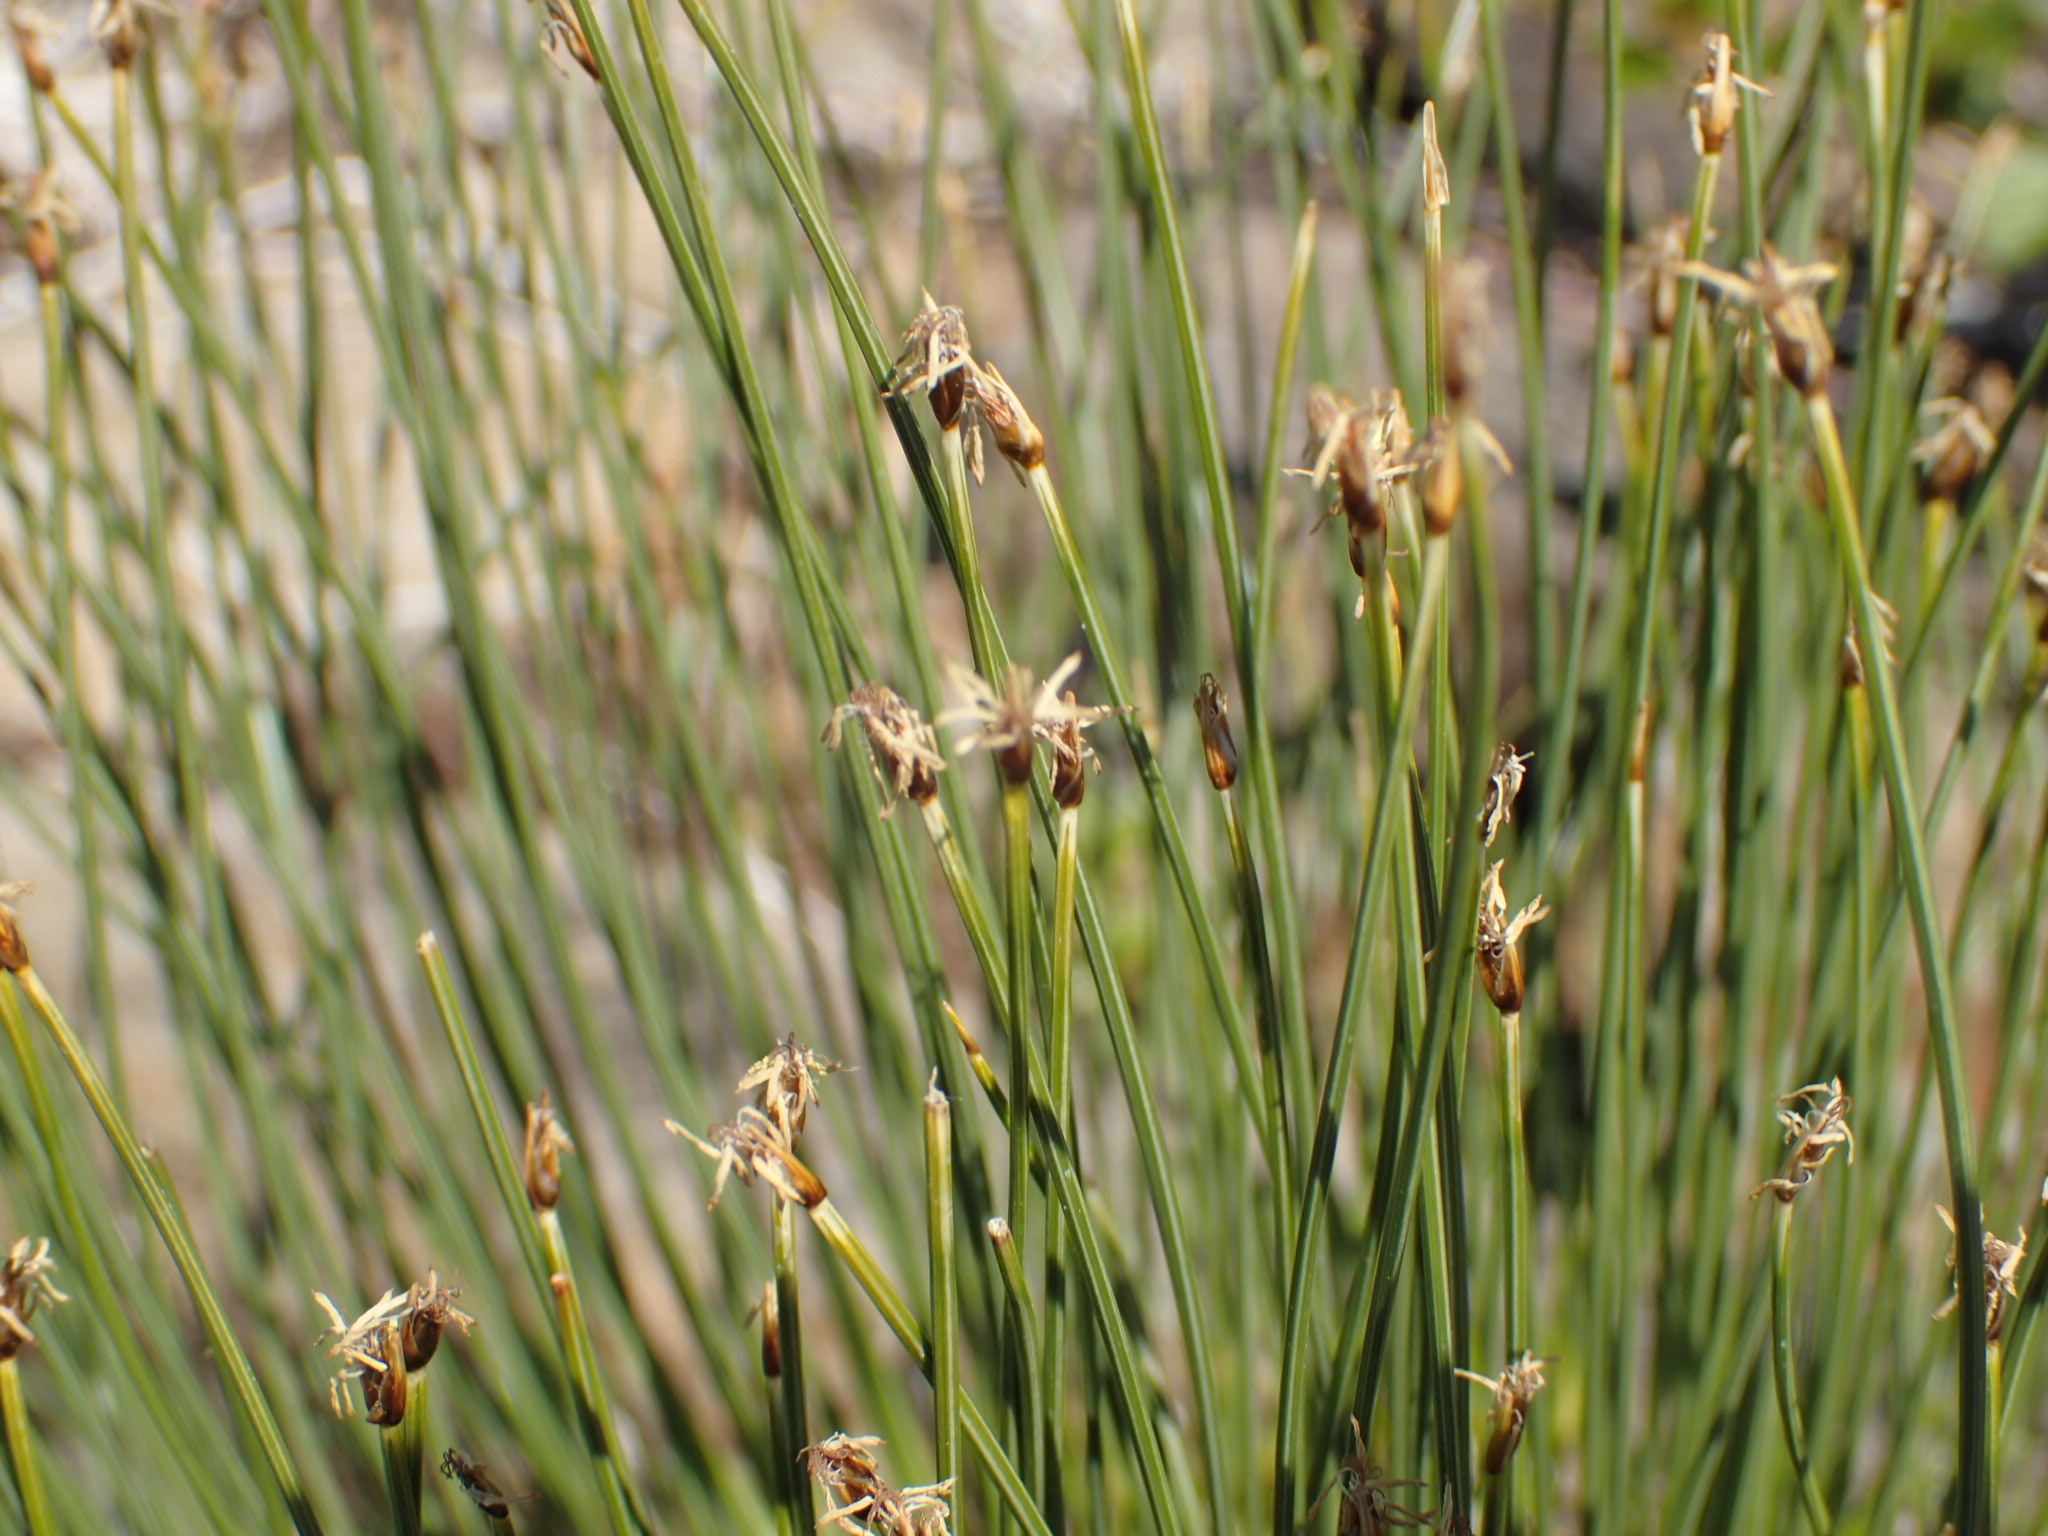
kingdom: Plantae
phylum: Tracheophyta
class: Liliopsida
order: Poales
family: Cyperaceae
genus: Trichophorum
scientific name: Trichophorum cespitosum
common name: Cespitose bulrush
